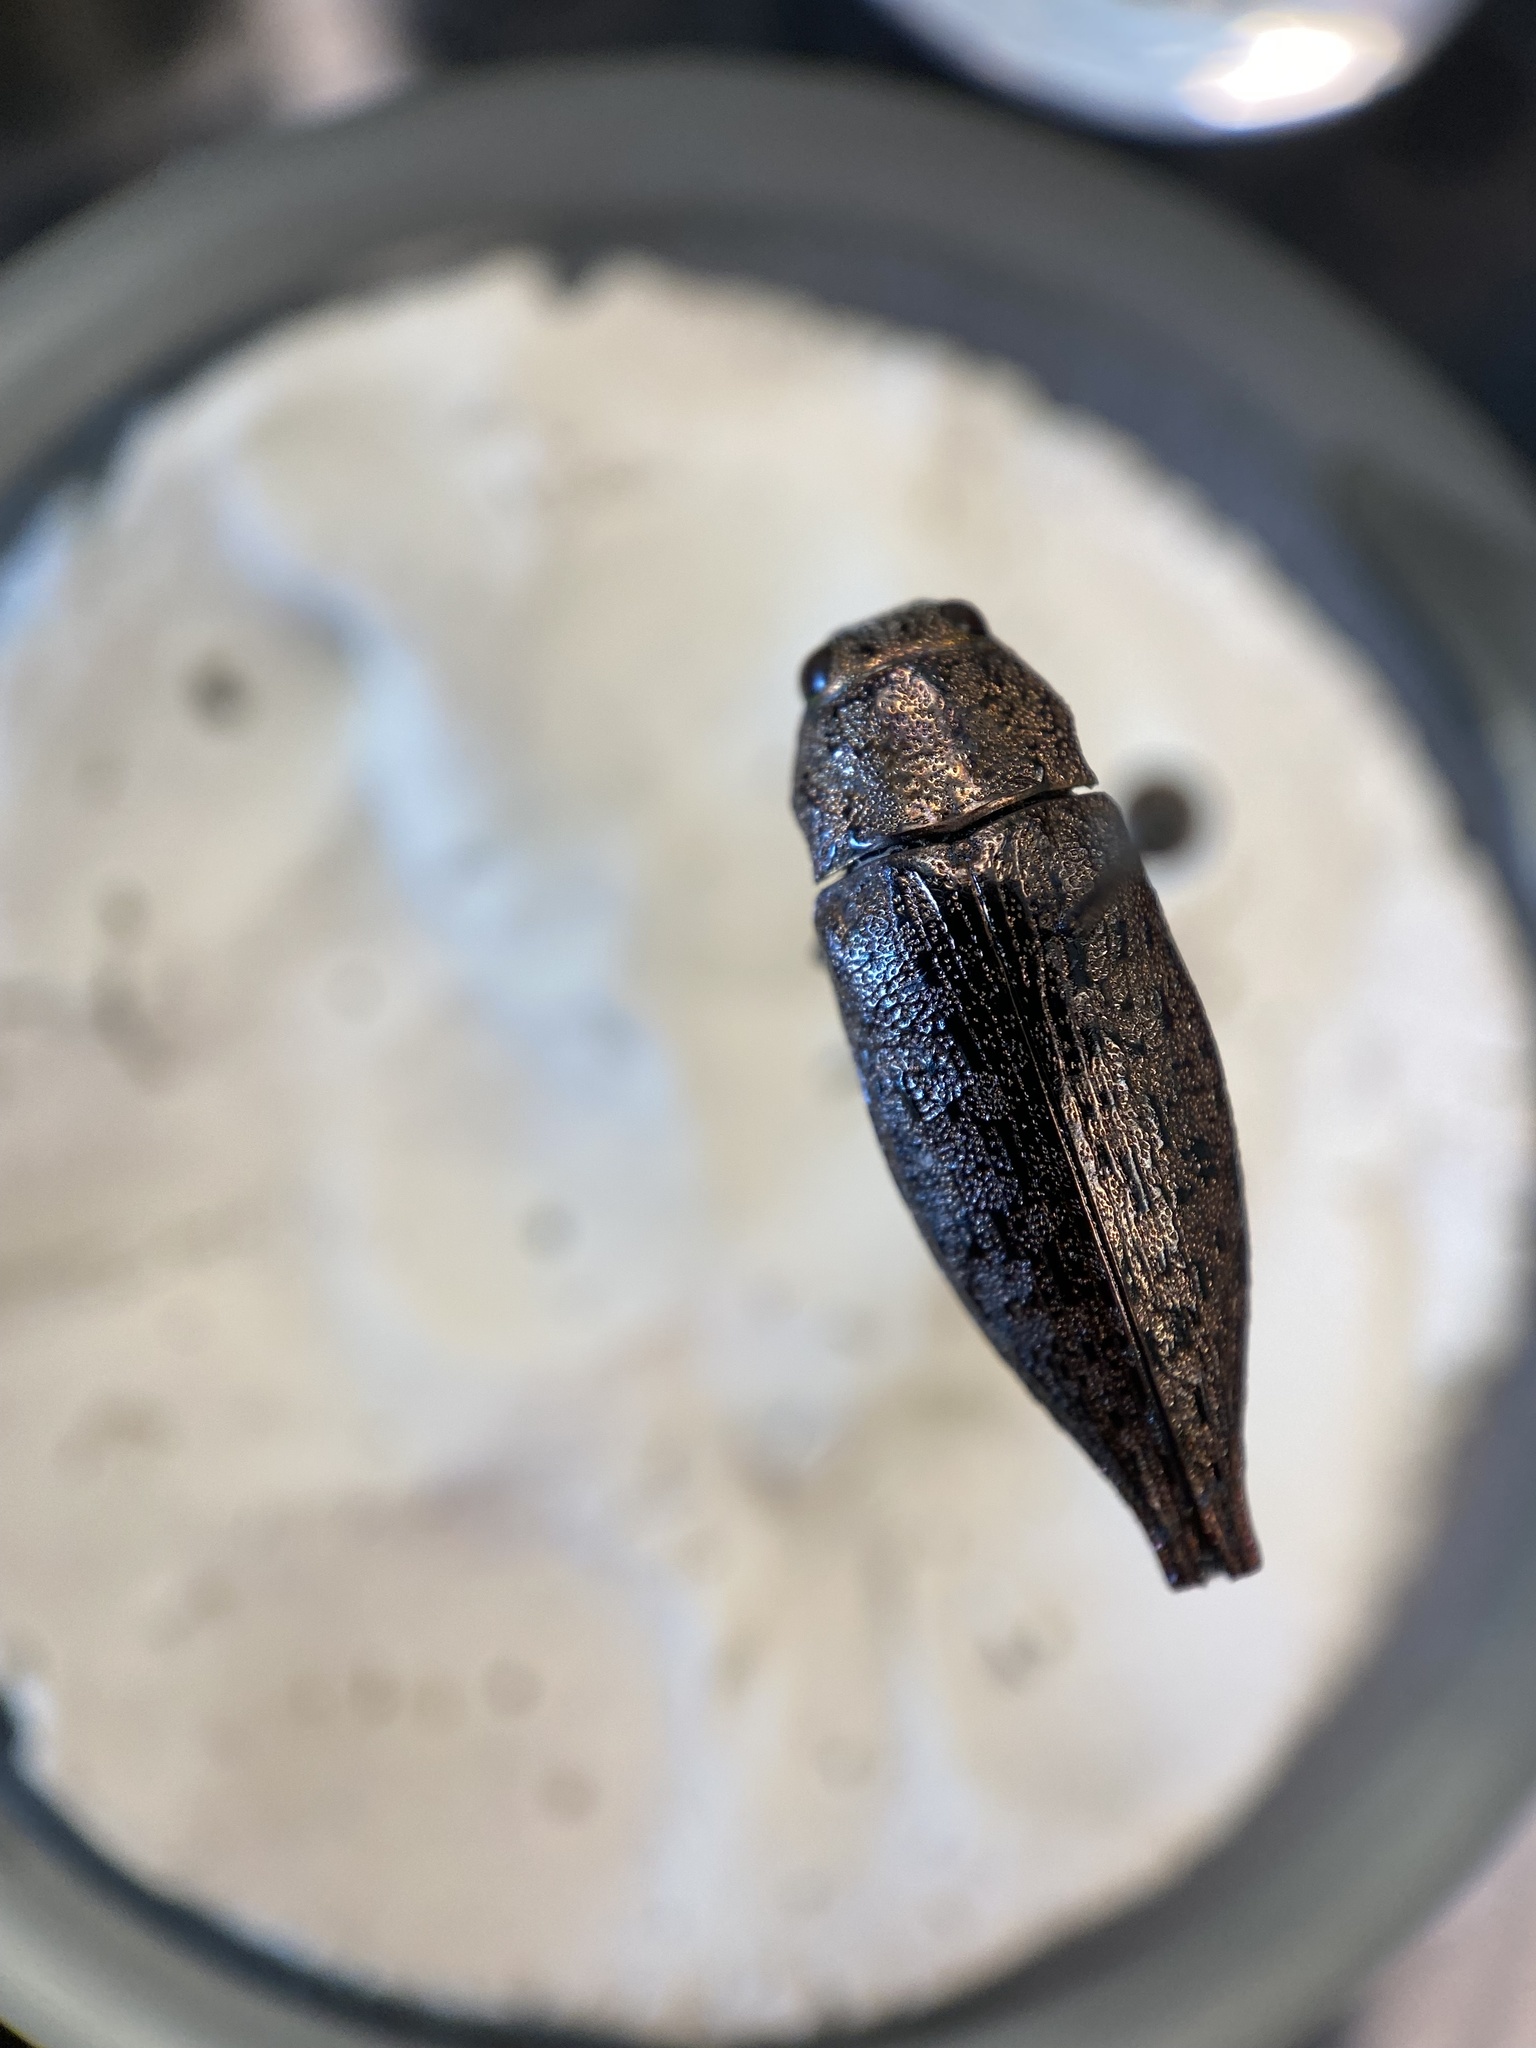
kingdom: Animalia
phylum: Arthropoda
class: Insecta
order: Coleoptera
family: Buprestidae
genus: Dicerca
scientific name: Dicerca divaricata
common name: Flat-headed hardwood borer
